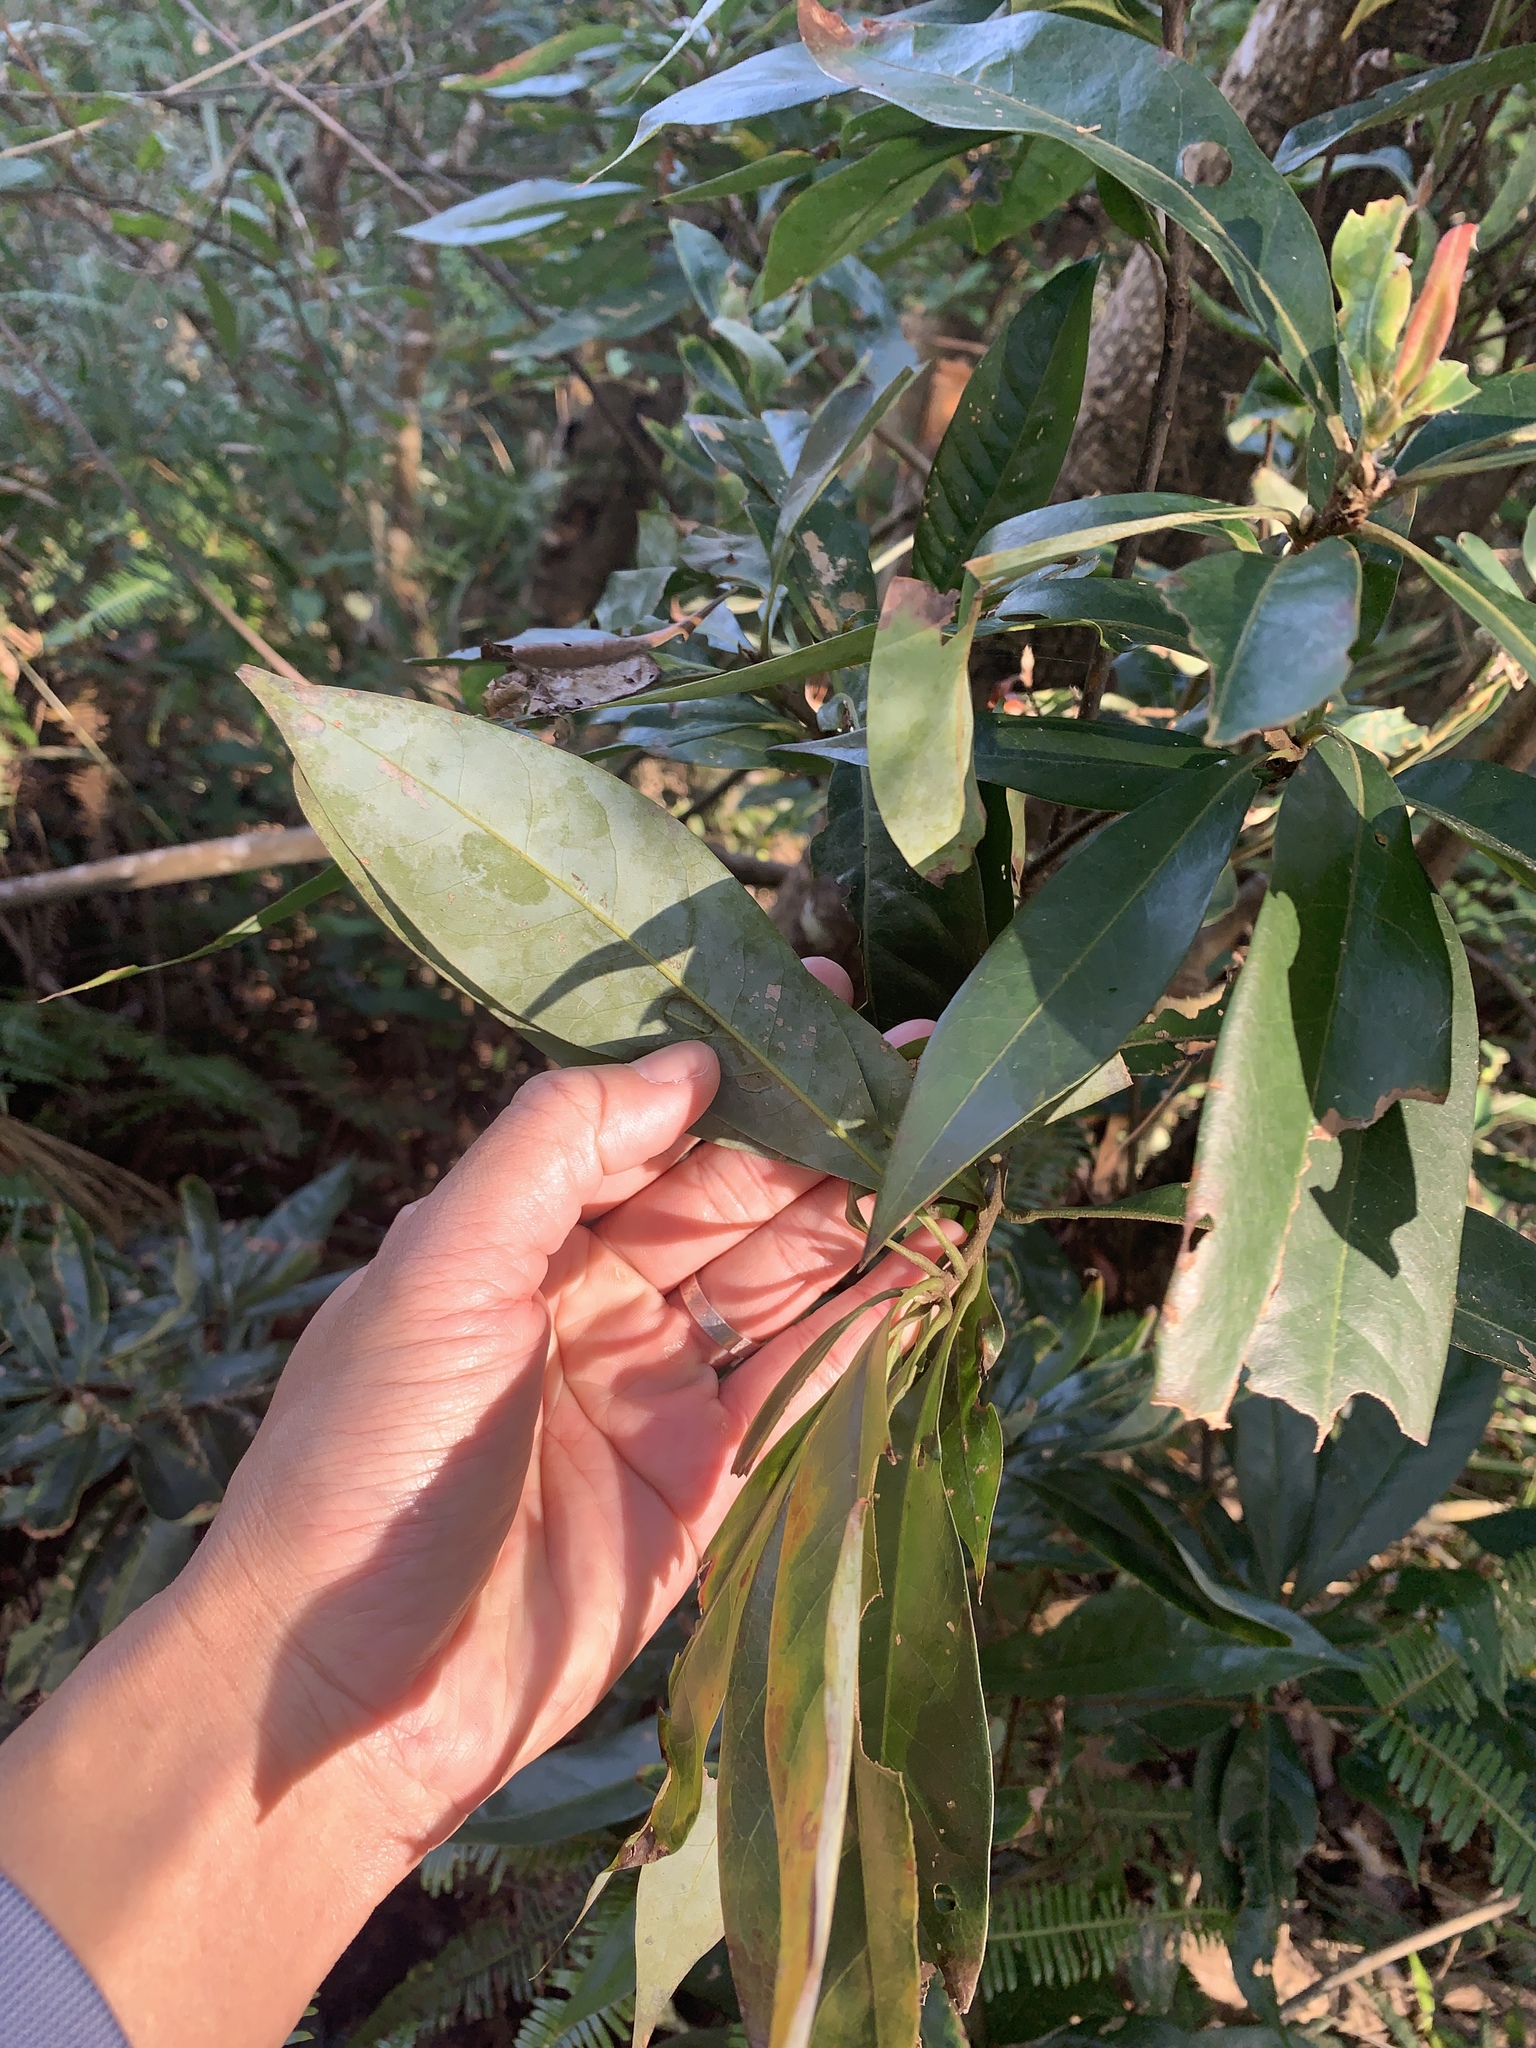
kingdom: Plantae
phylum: Tracheophyta
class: Magnoliopsida
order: Ericales
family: Theaceae
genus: Schima
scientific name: Schima superba
